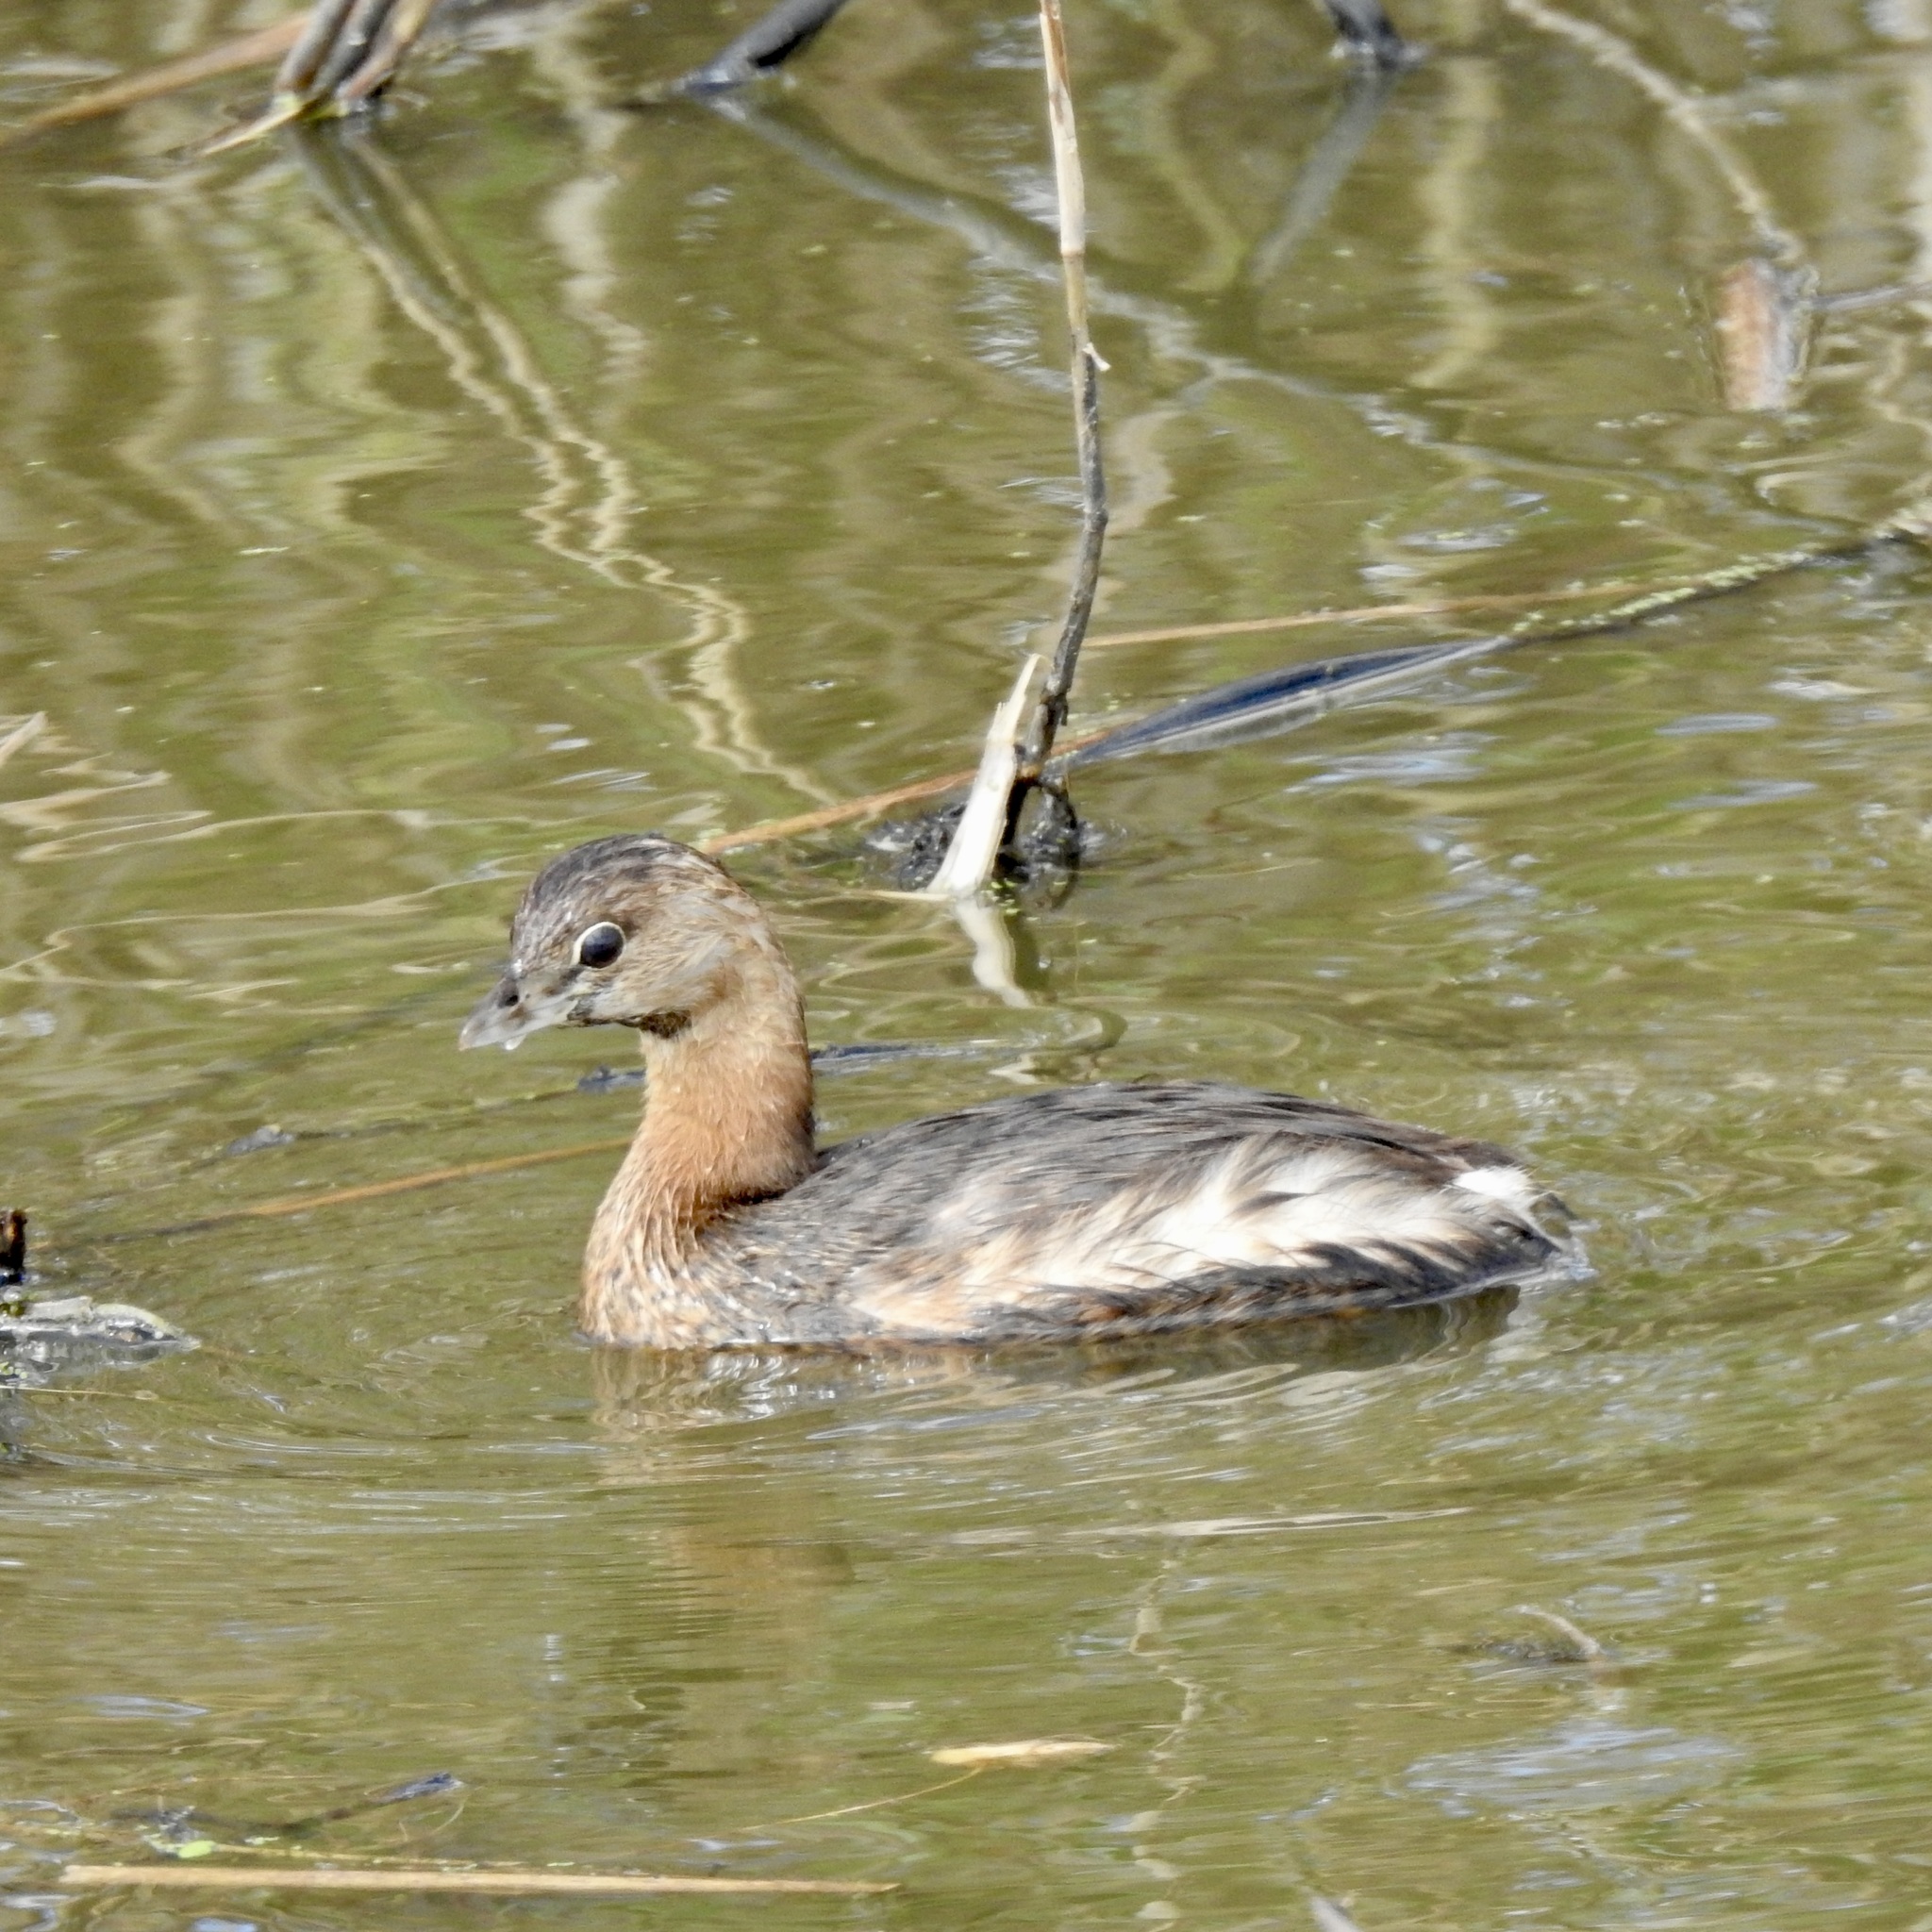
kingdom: Animalia
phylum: Chordata
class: Aves
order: Podicipediformes
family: Podicipedidae
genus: Podilymbus
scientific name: Podilymbus podiceps
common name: Pied-billed grebe
